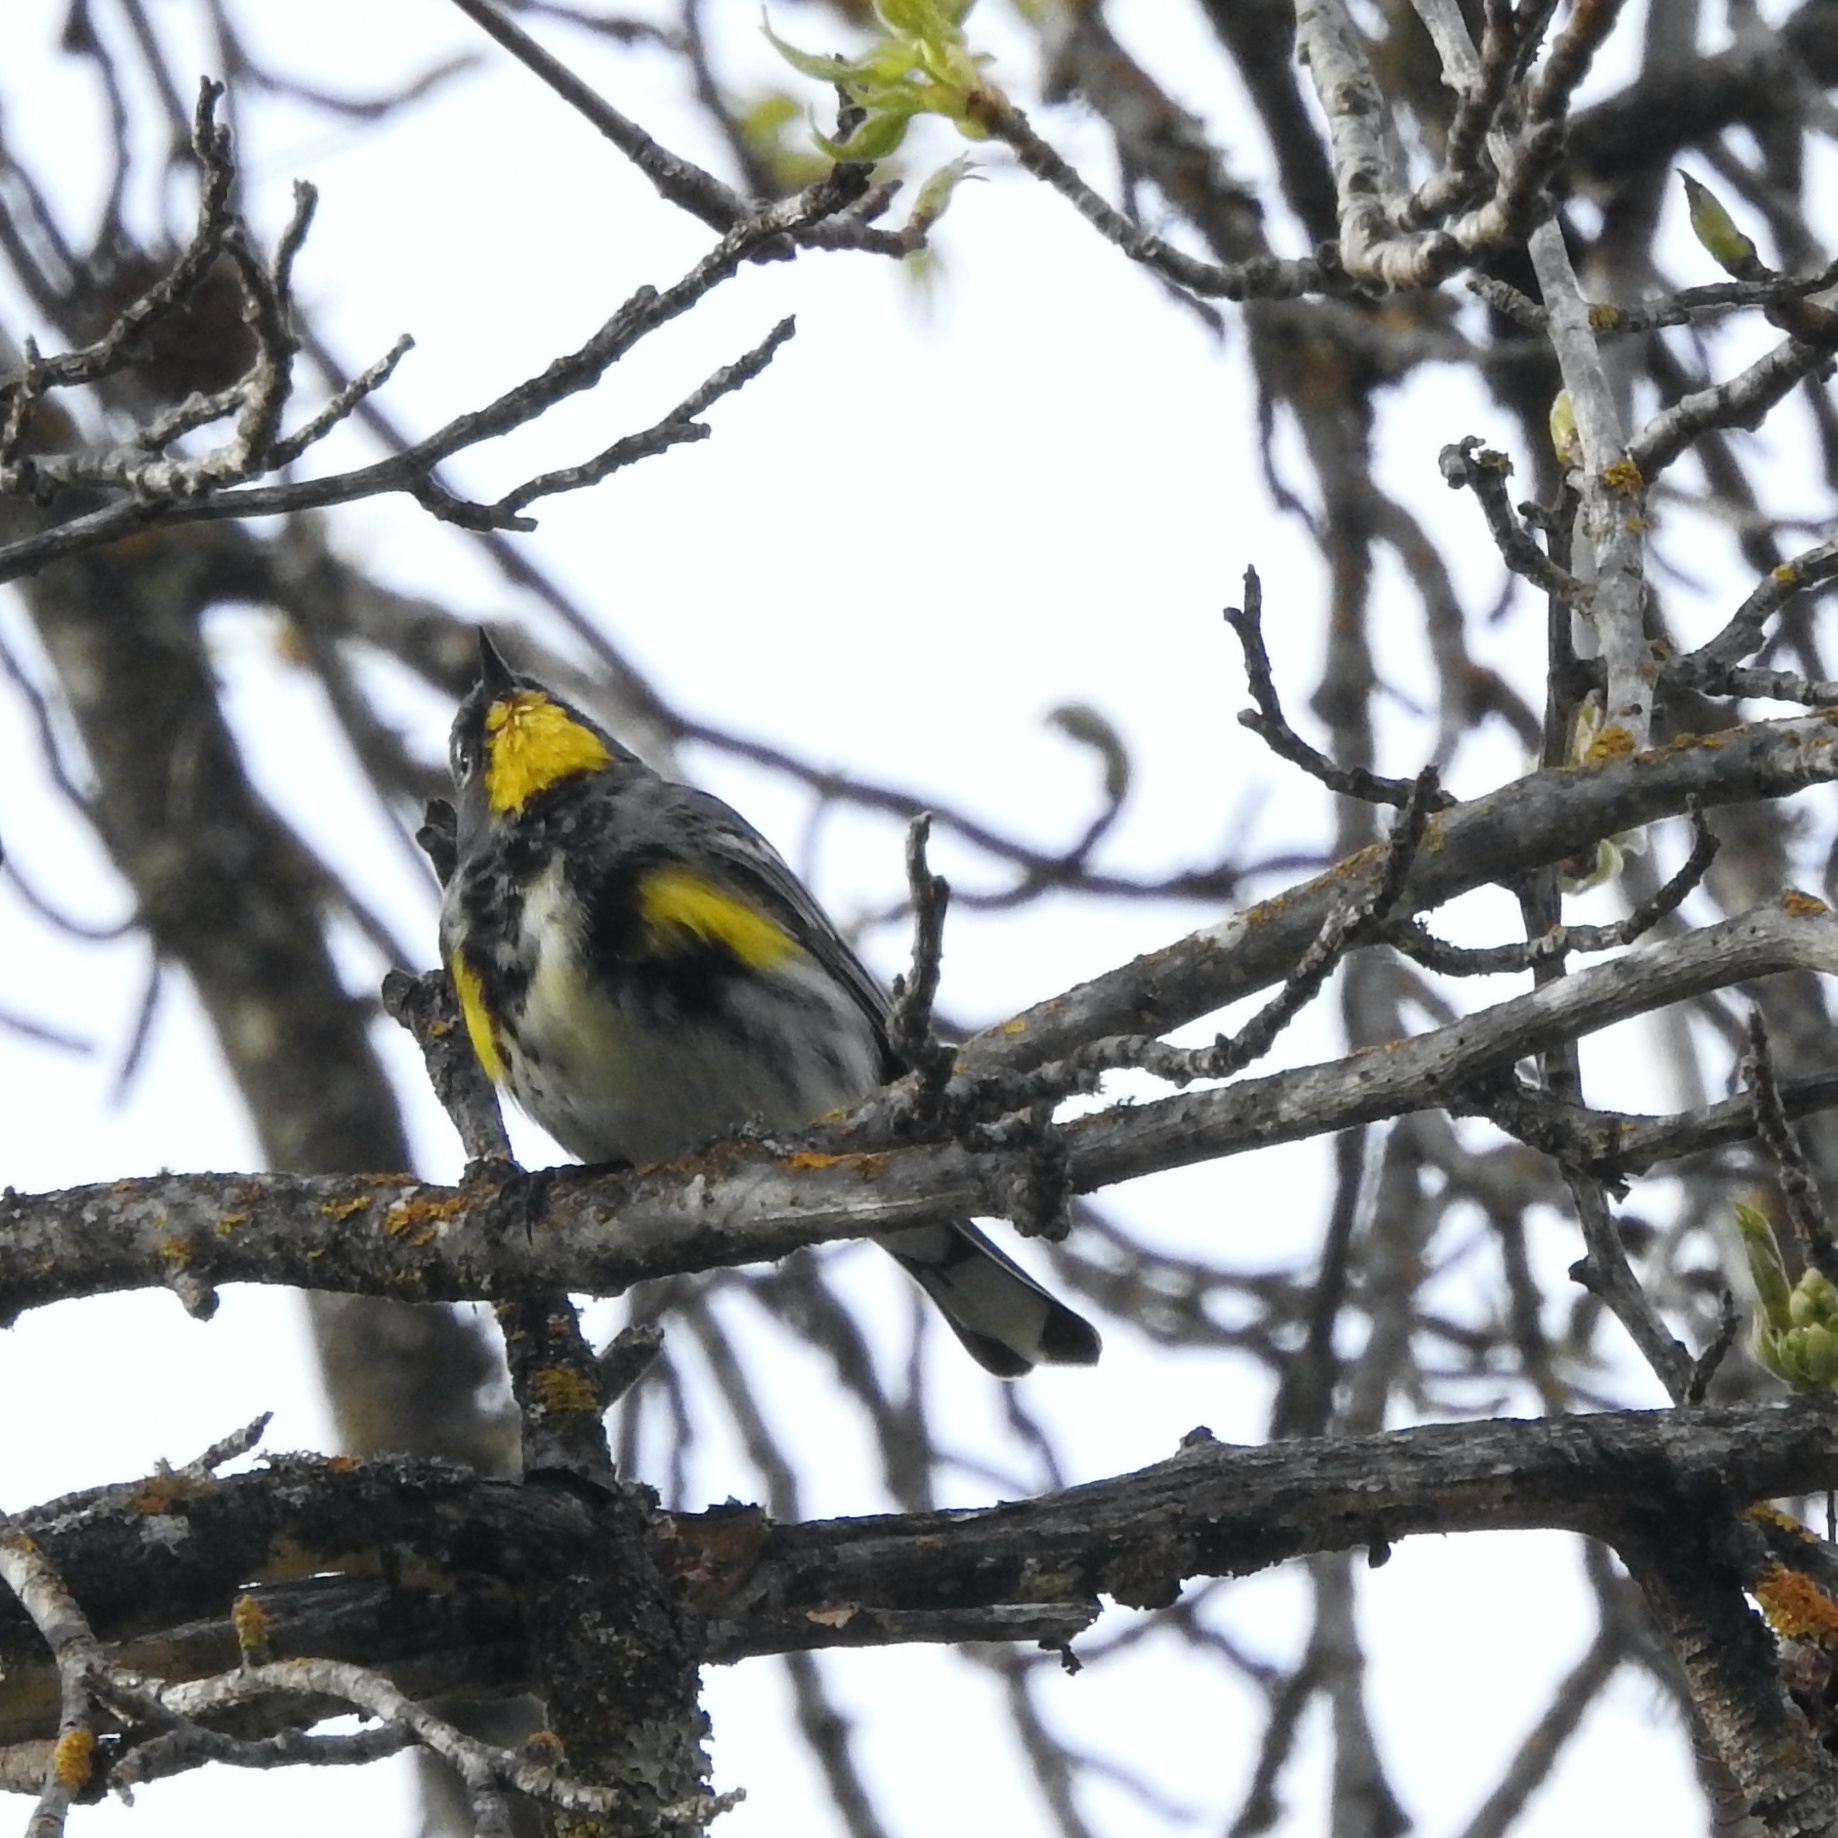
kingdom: Animalia
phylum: Chordata
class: Aves
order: Passeriformes
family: Parulidae
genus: Setophaga
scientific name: Setophaga coronata
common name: Myrtle warbler
